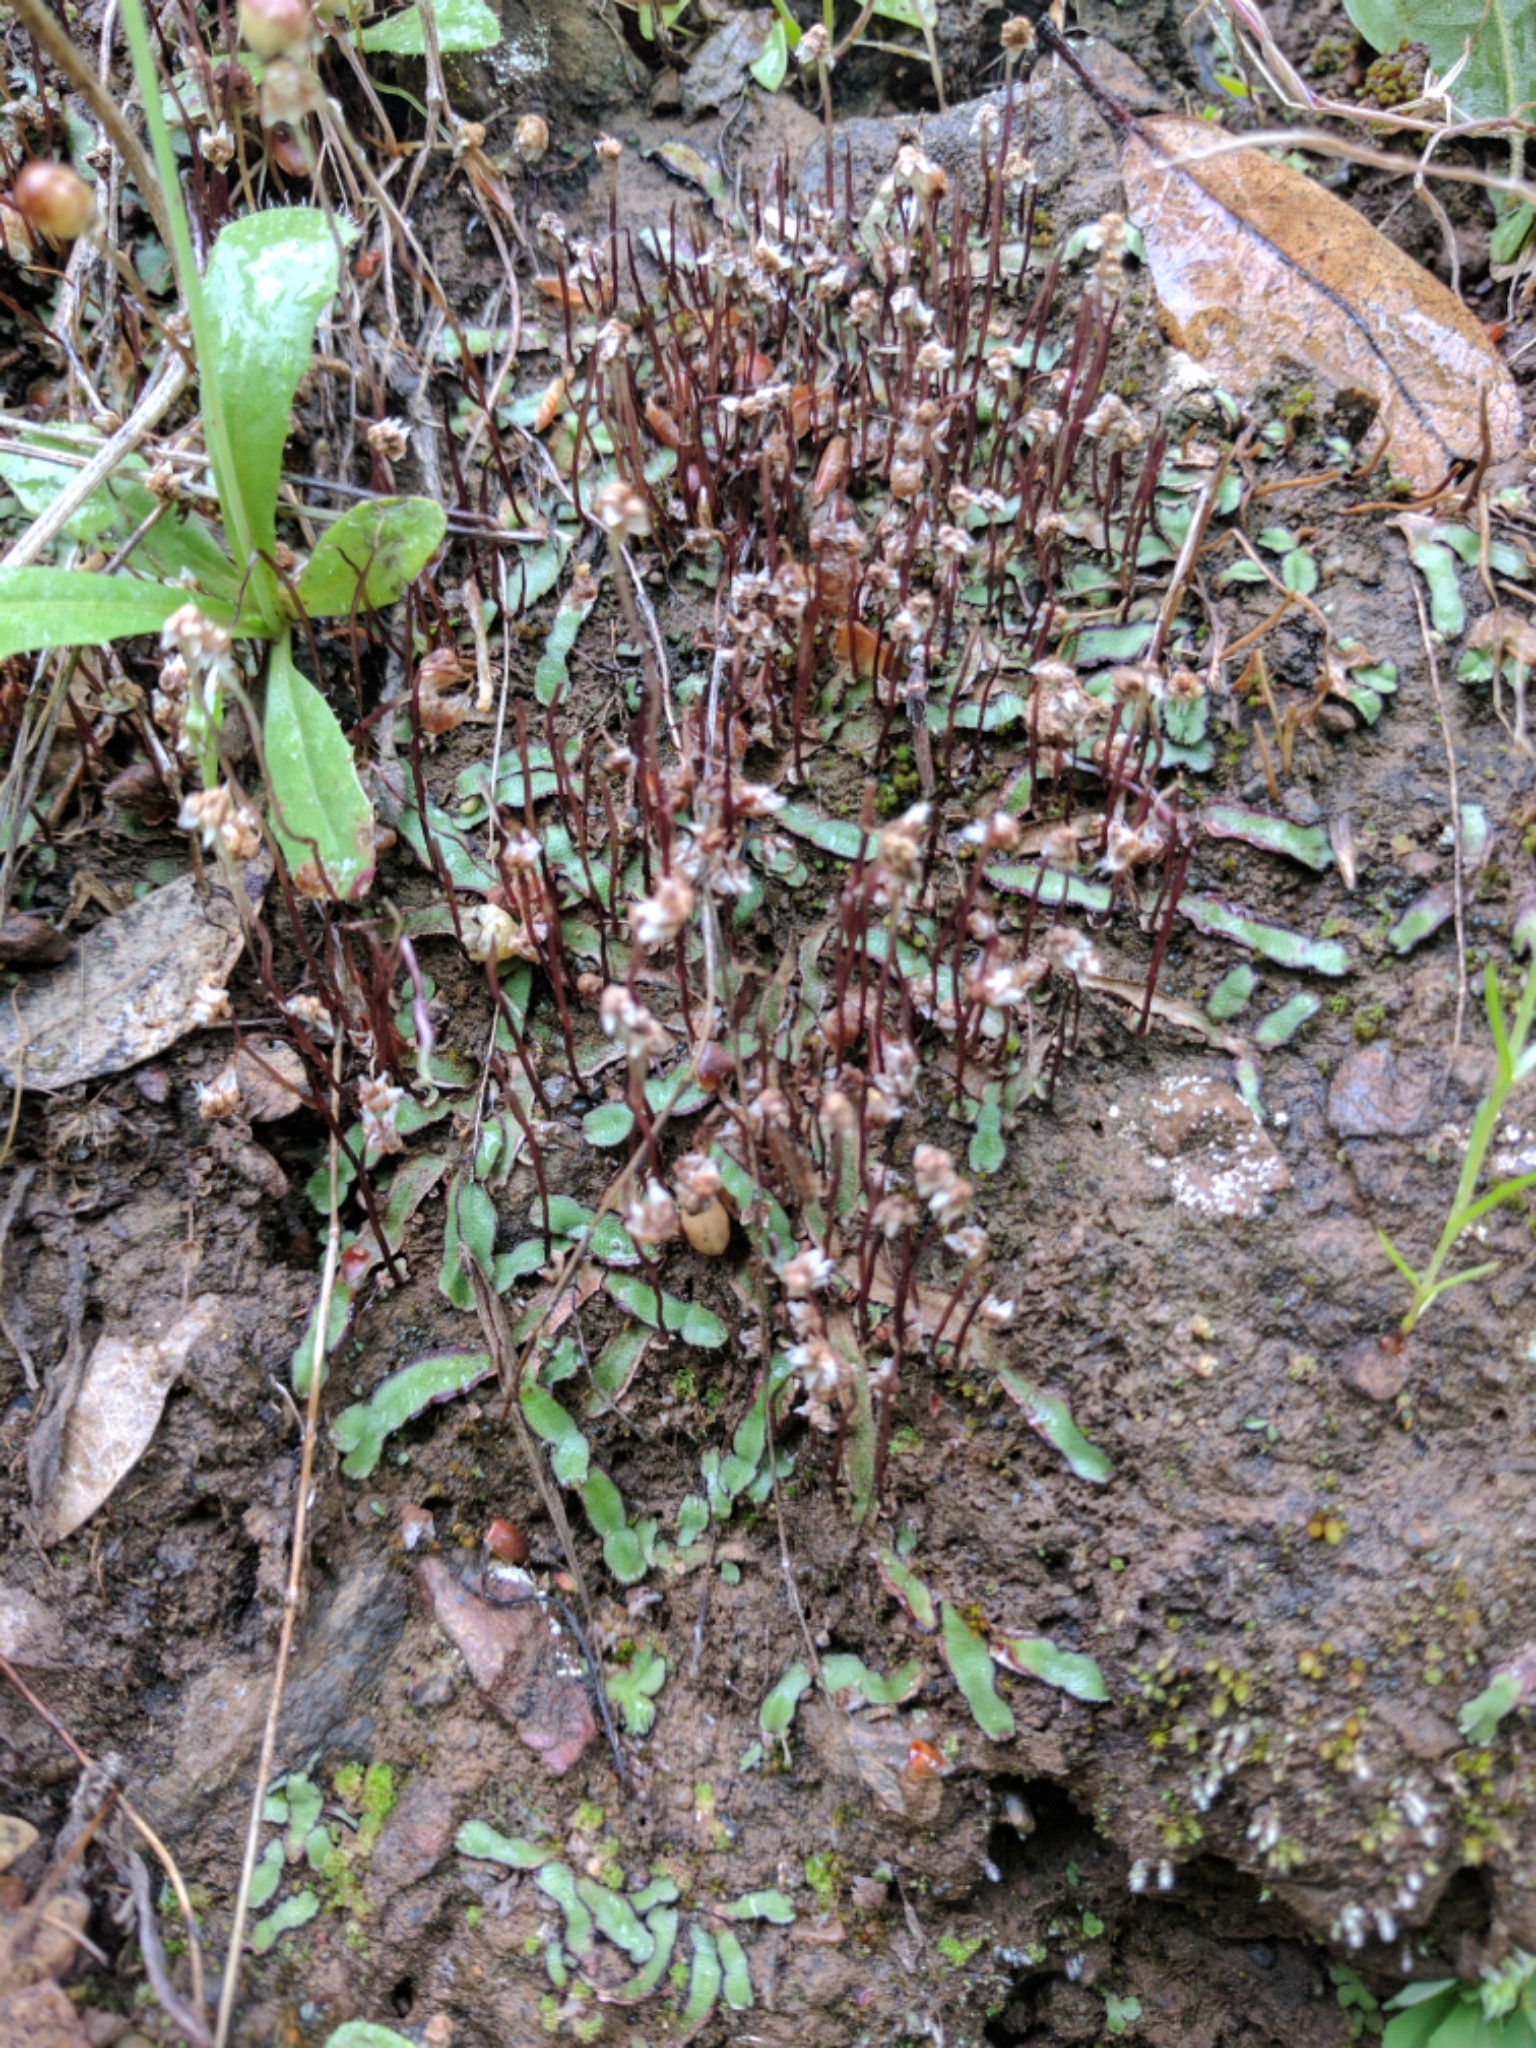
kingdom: Plantae
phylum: Marchantiophyta
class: Marchantiopsida
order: Marchantiales
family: Aytoniaceae
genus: Asterella
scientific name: Asterella bolanderi
